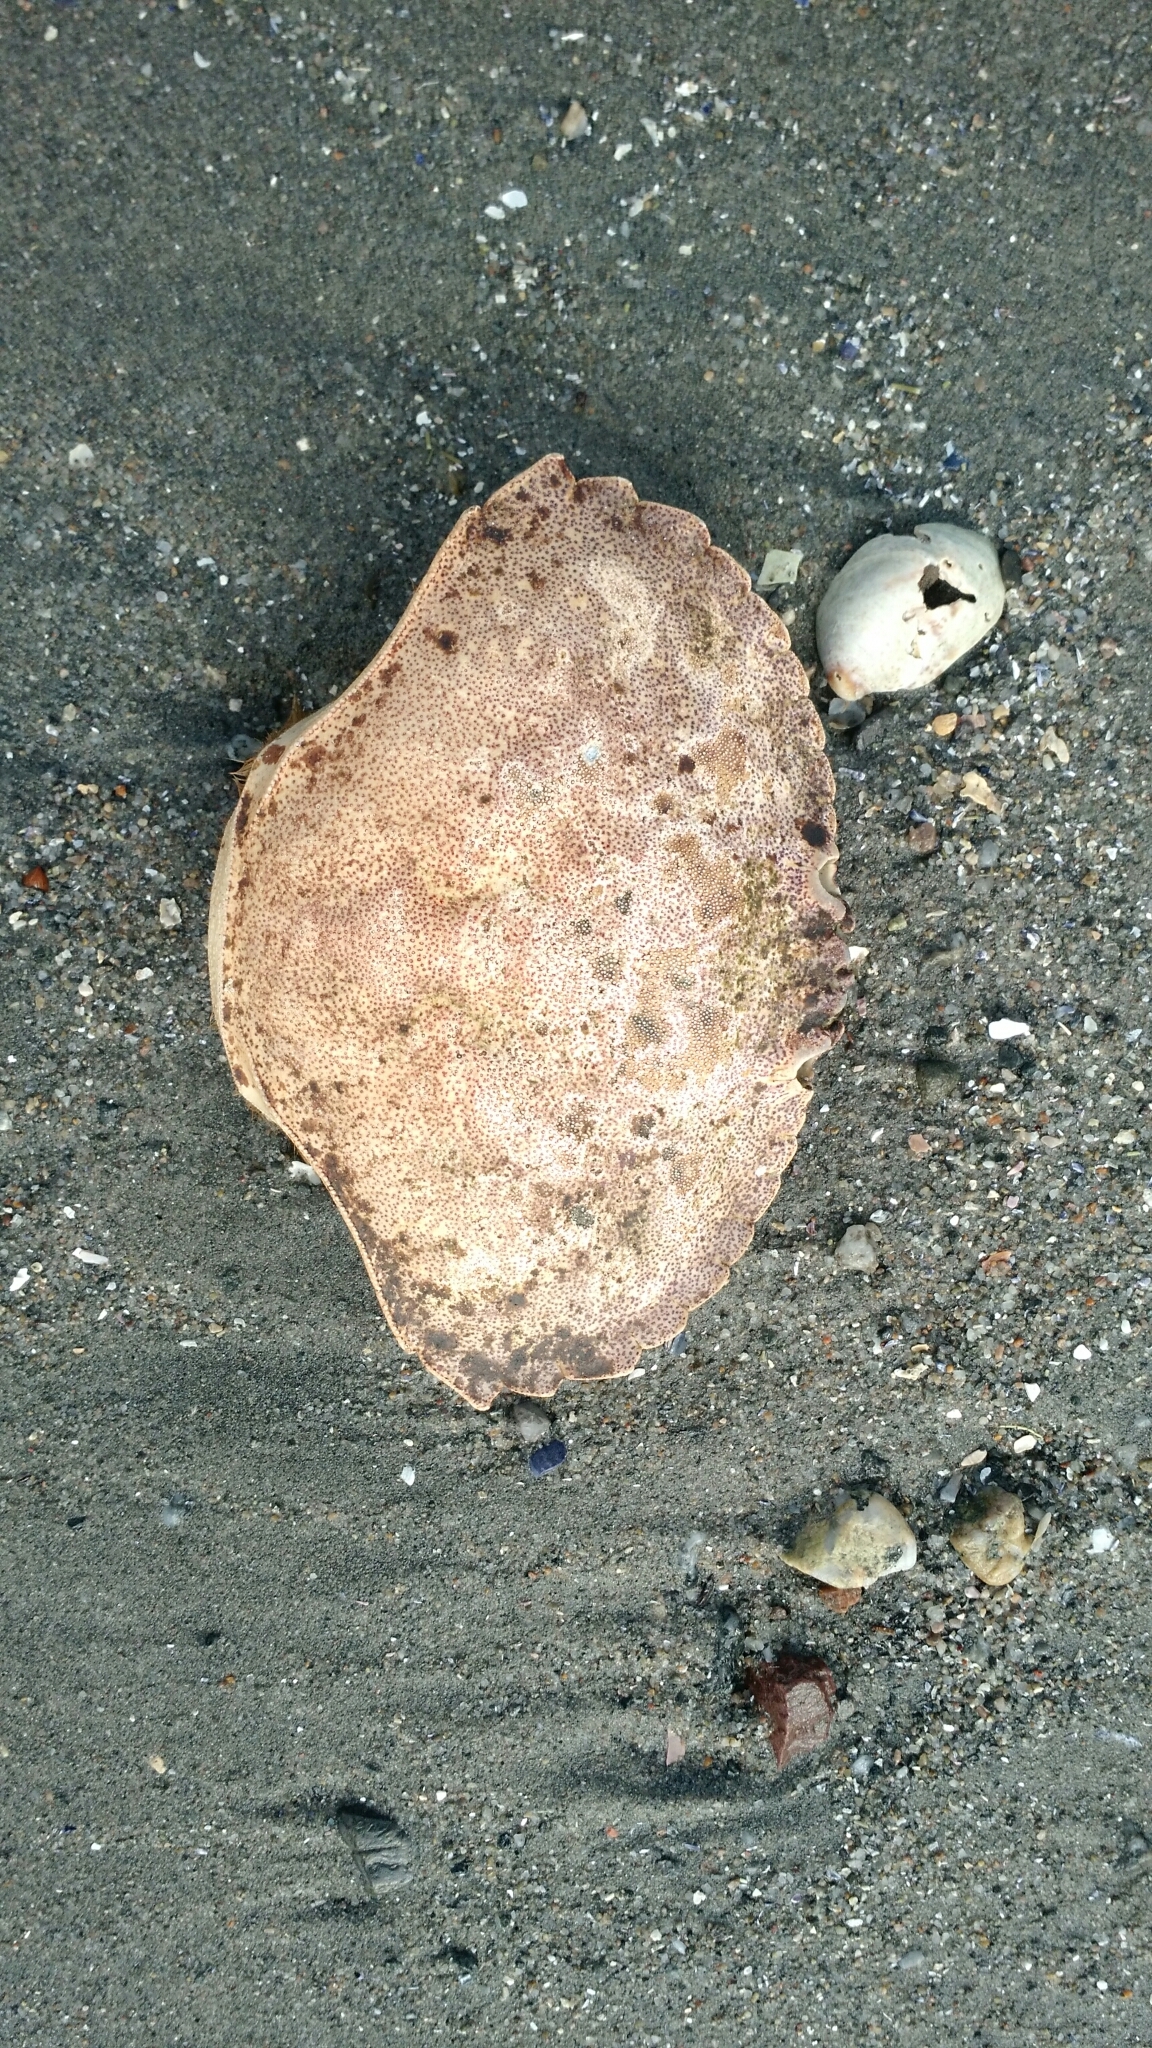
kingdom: Animalia
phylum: Arthropoda
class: Malacostraca
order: Decapoda
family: Cancridae
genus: Cancer
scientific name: Cancer irroratus
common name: Atlantic rock crab
